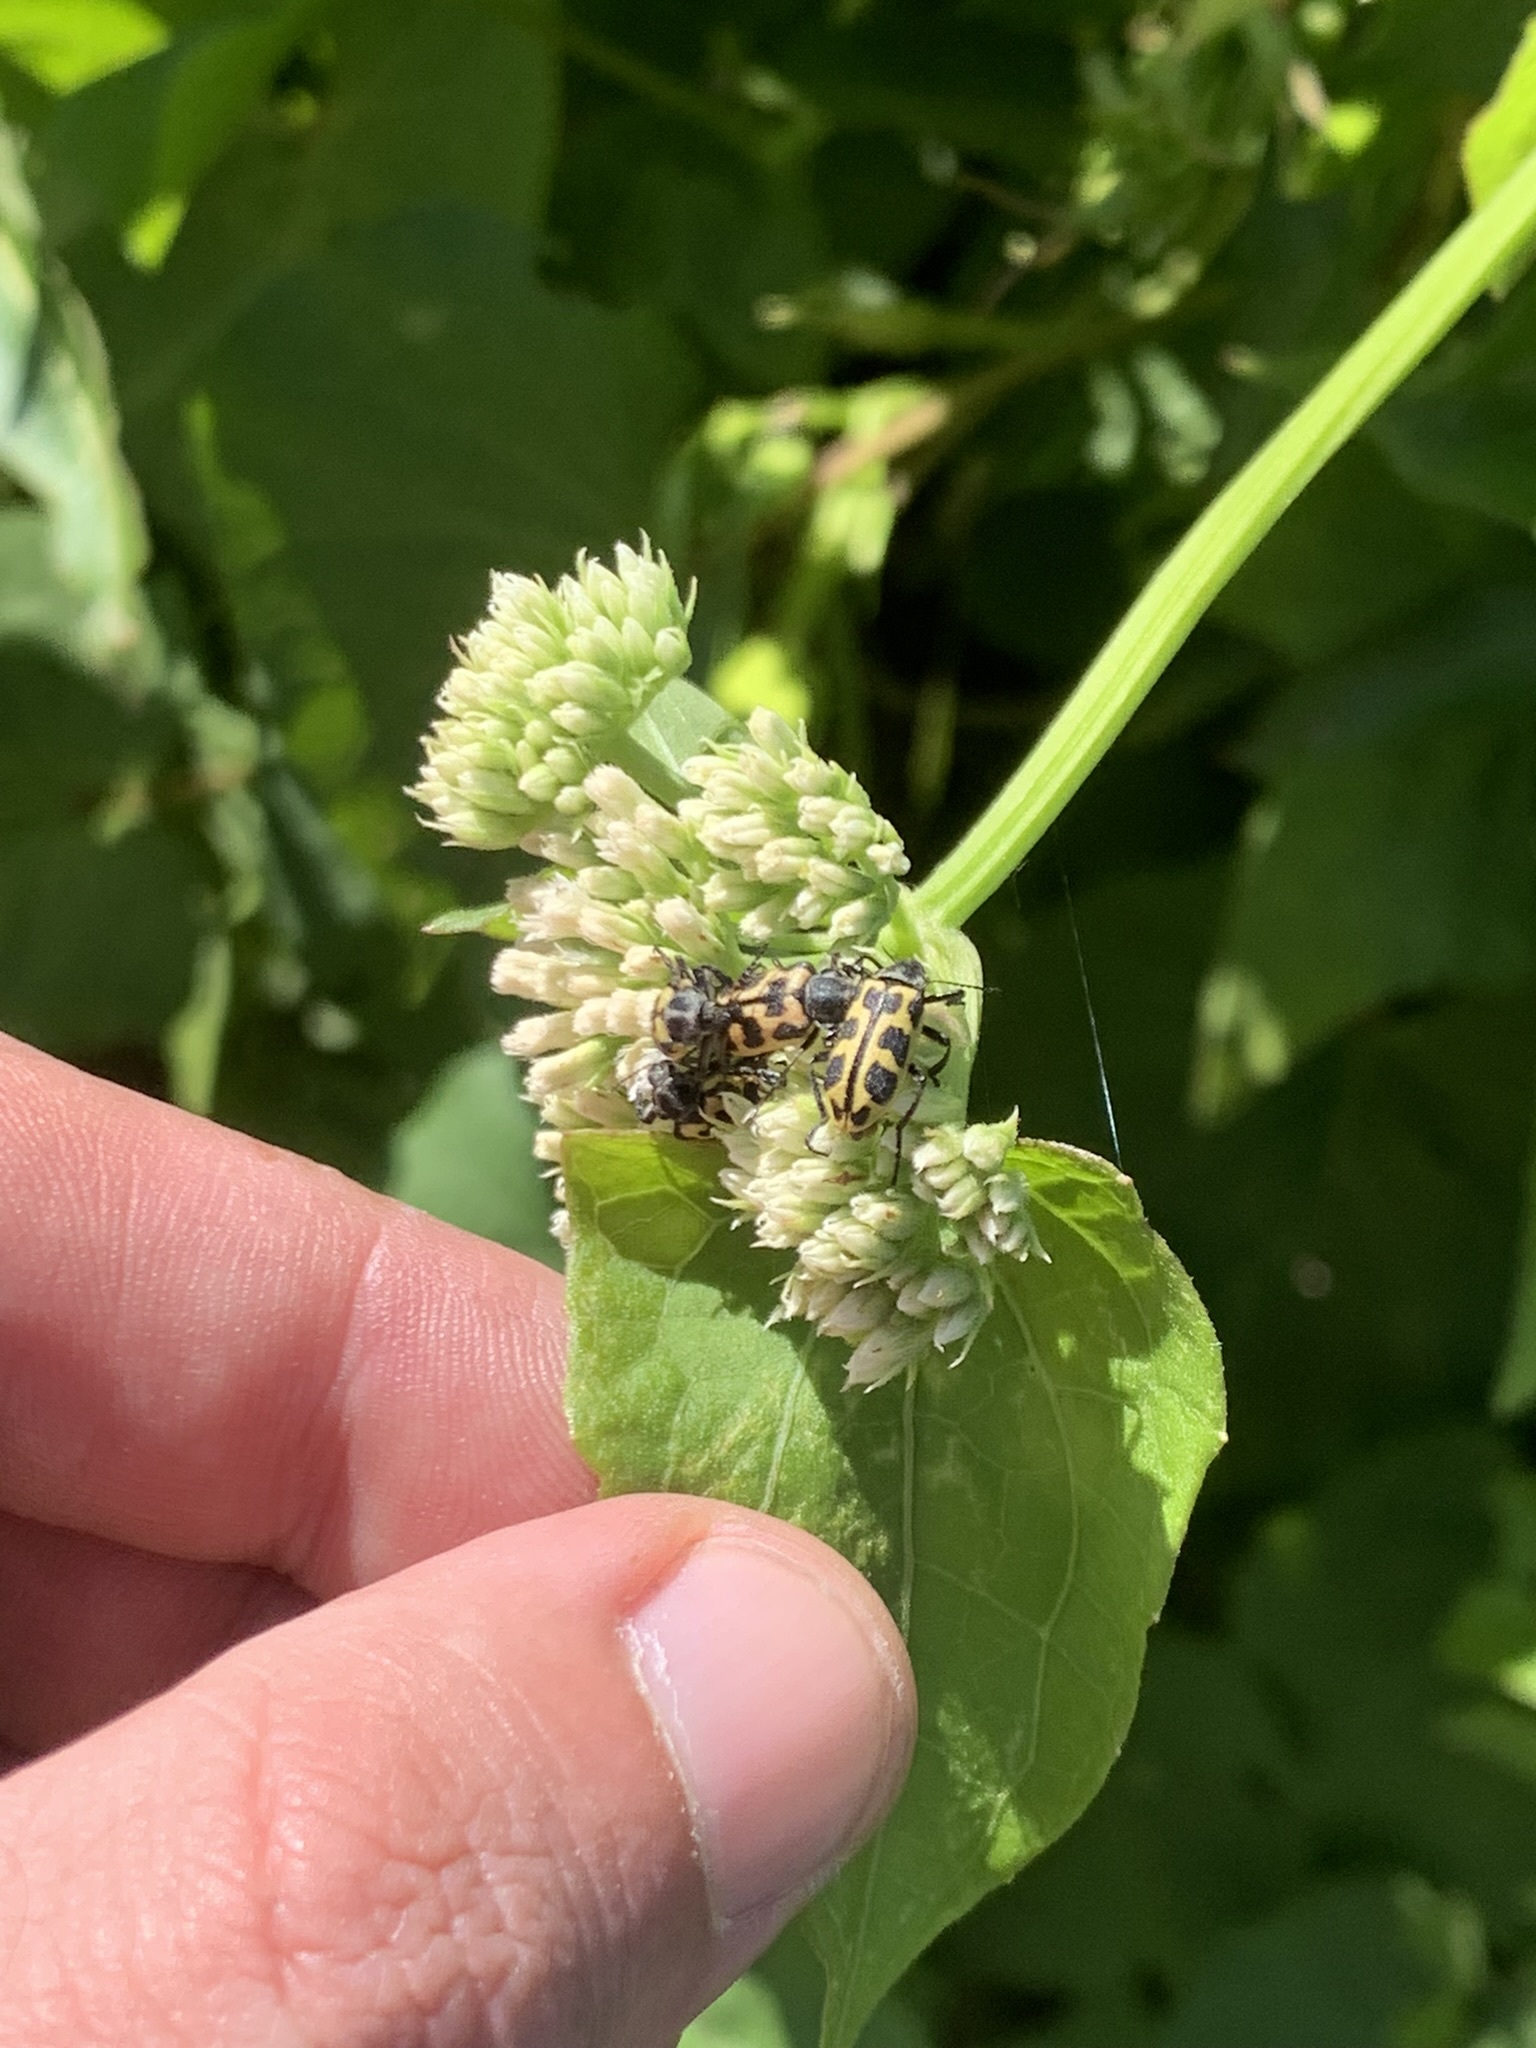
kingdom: Plantae
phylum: Tracheophyta
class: Magnoliopsida
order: Asterales
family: Asteraceae
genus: Mikania
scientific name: Mikania cordifolia
